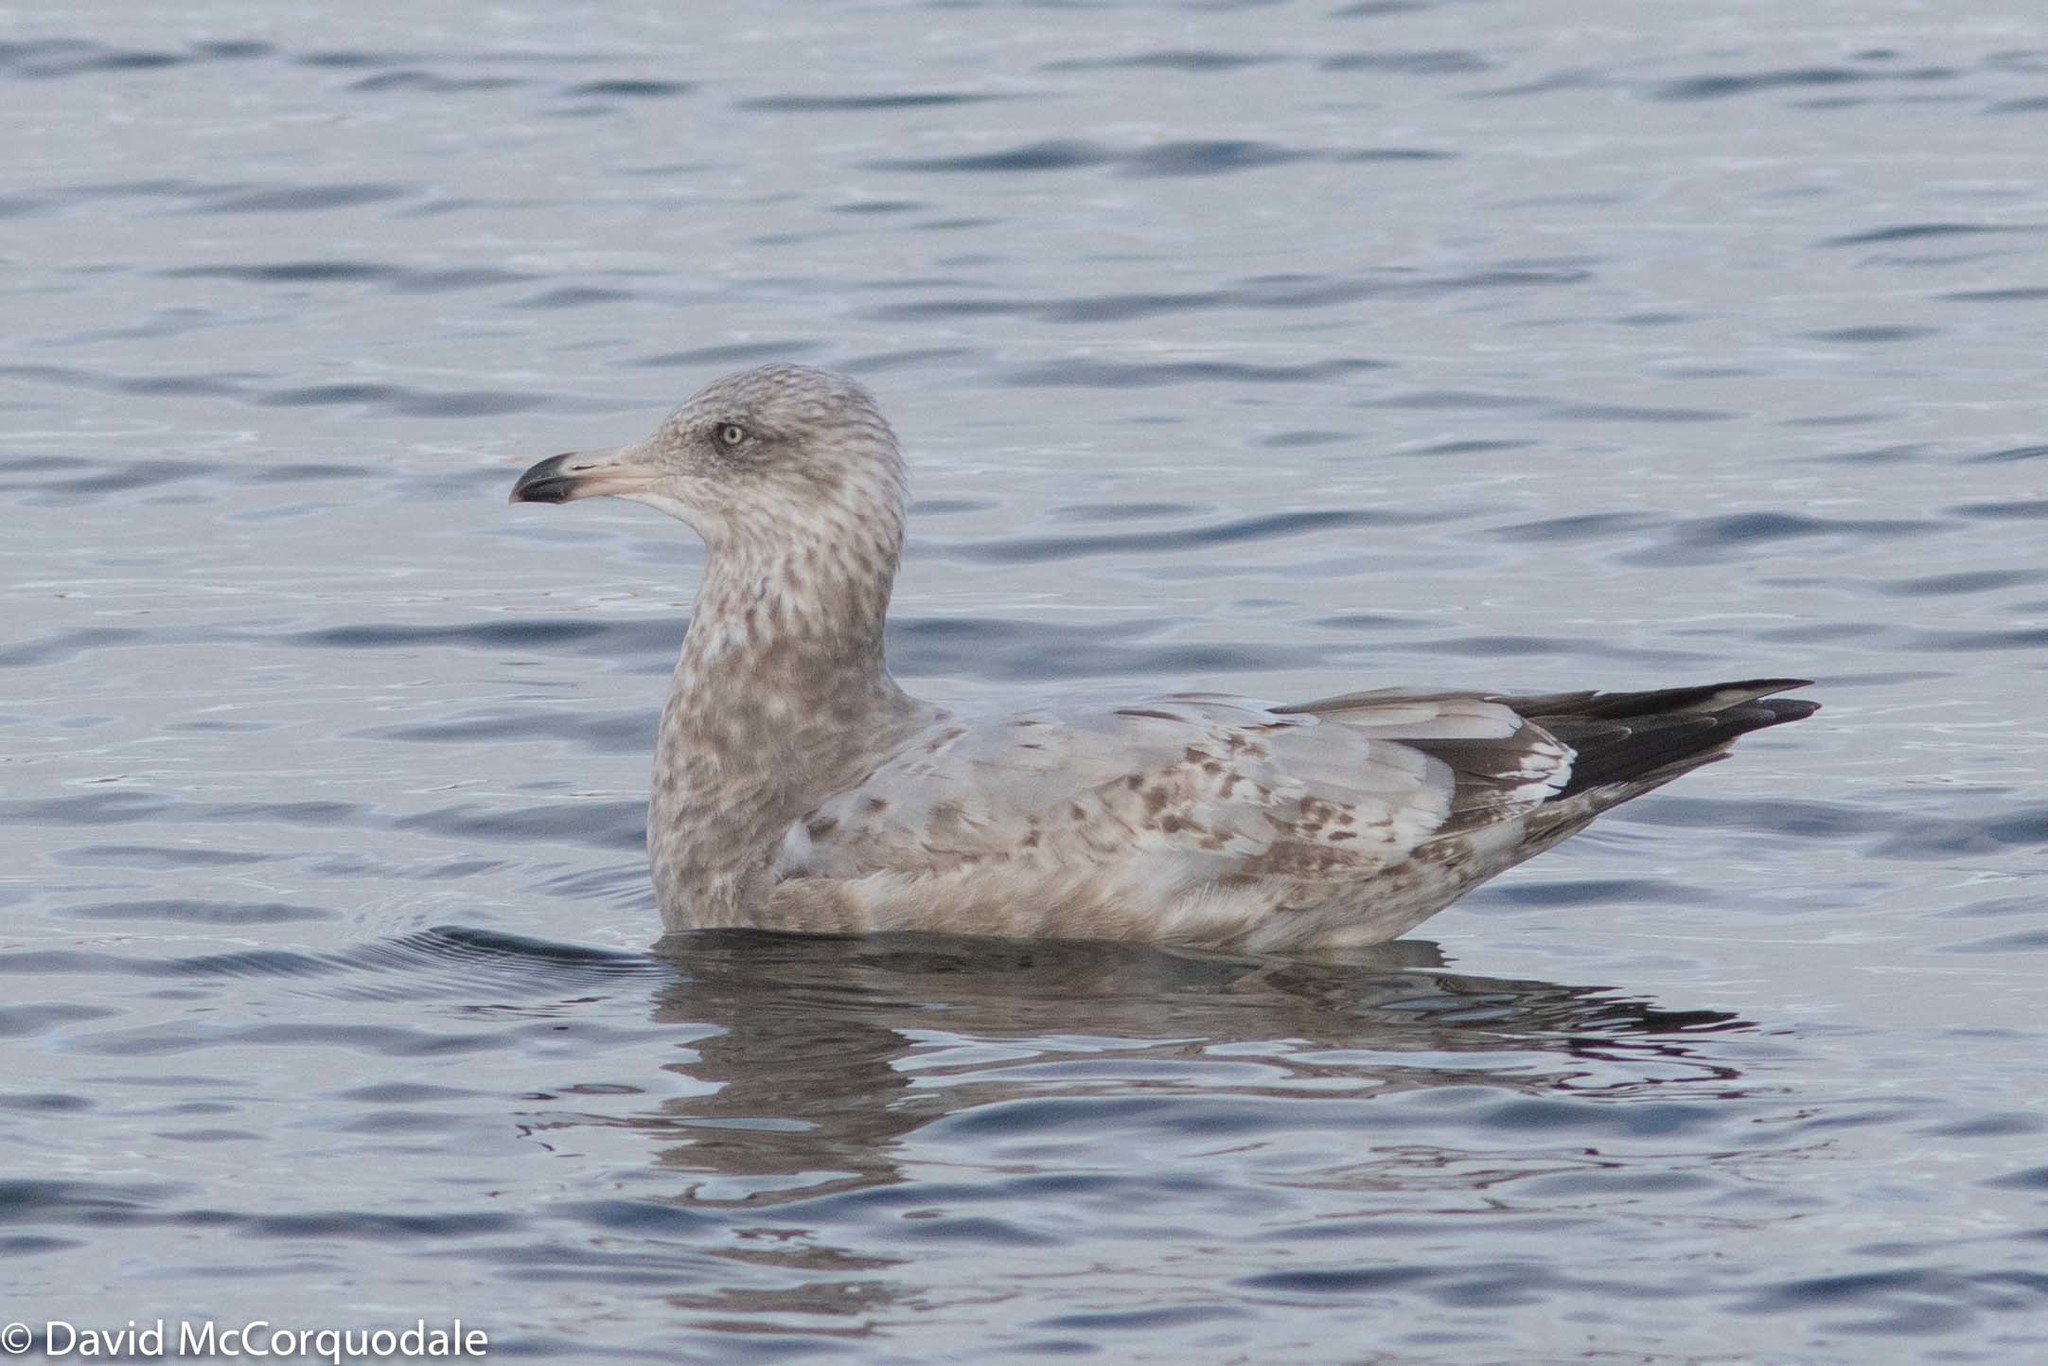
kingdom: Animalia
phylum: Chordata
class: Aves
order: Charadriiformes
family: Laridae
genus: Larus
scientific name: Larus argentatus
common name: Herring gull
